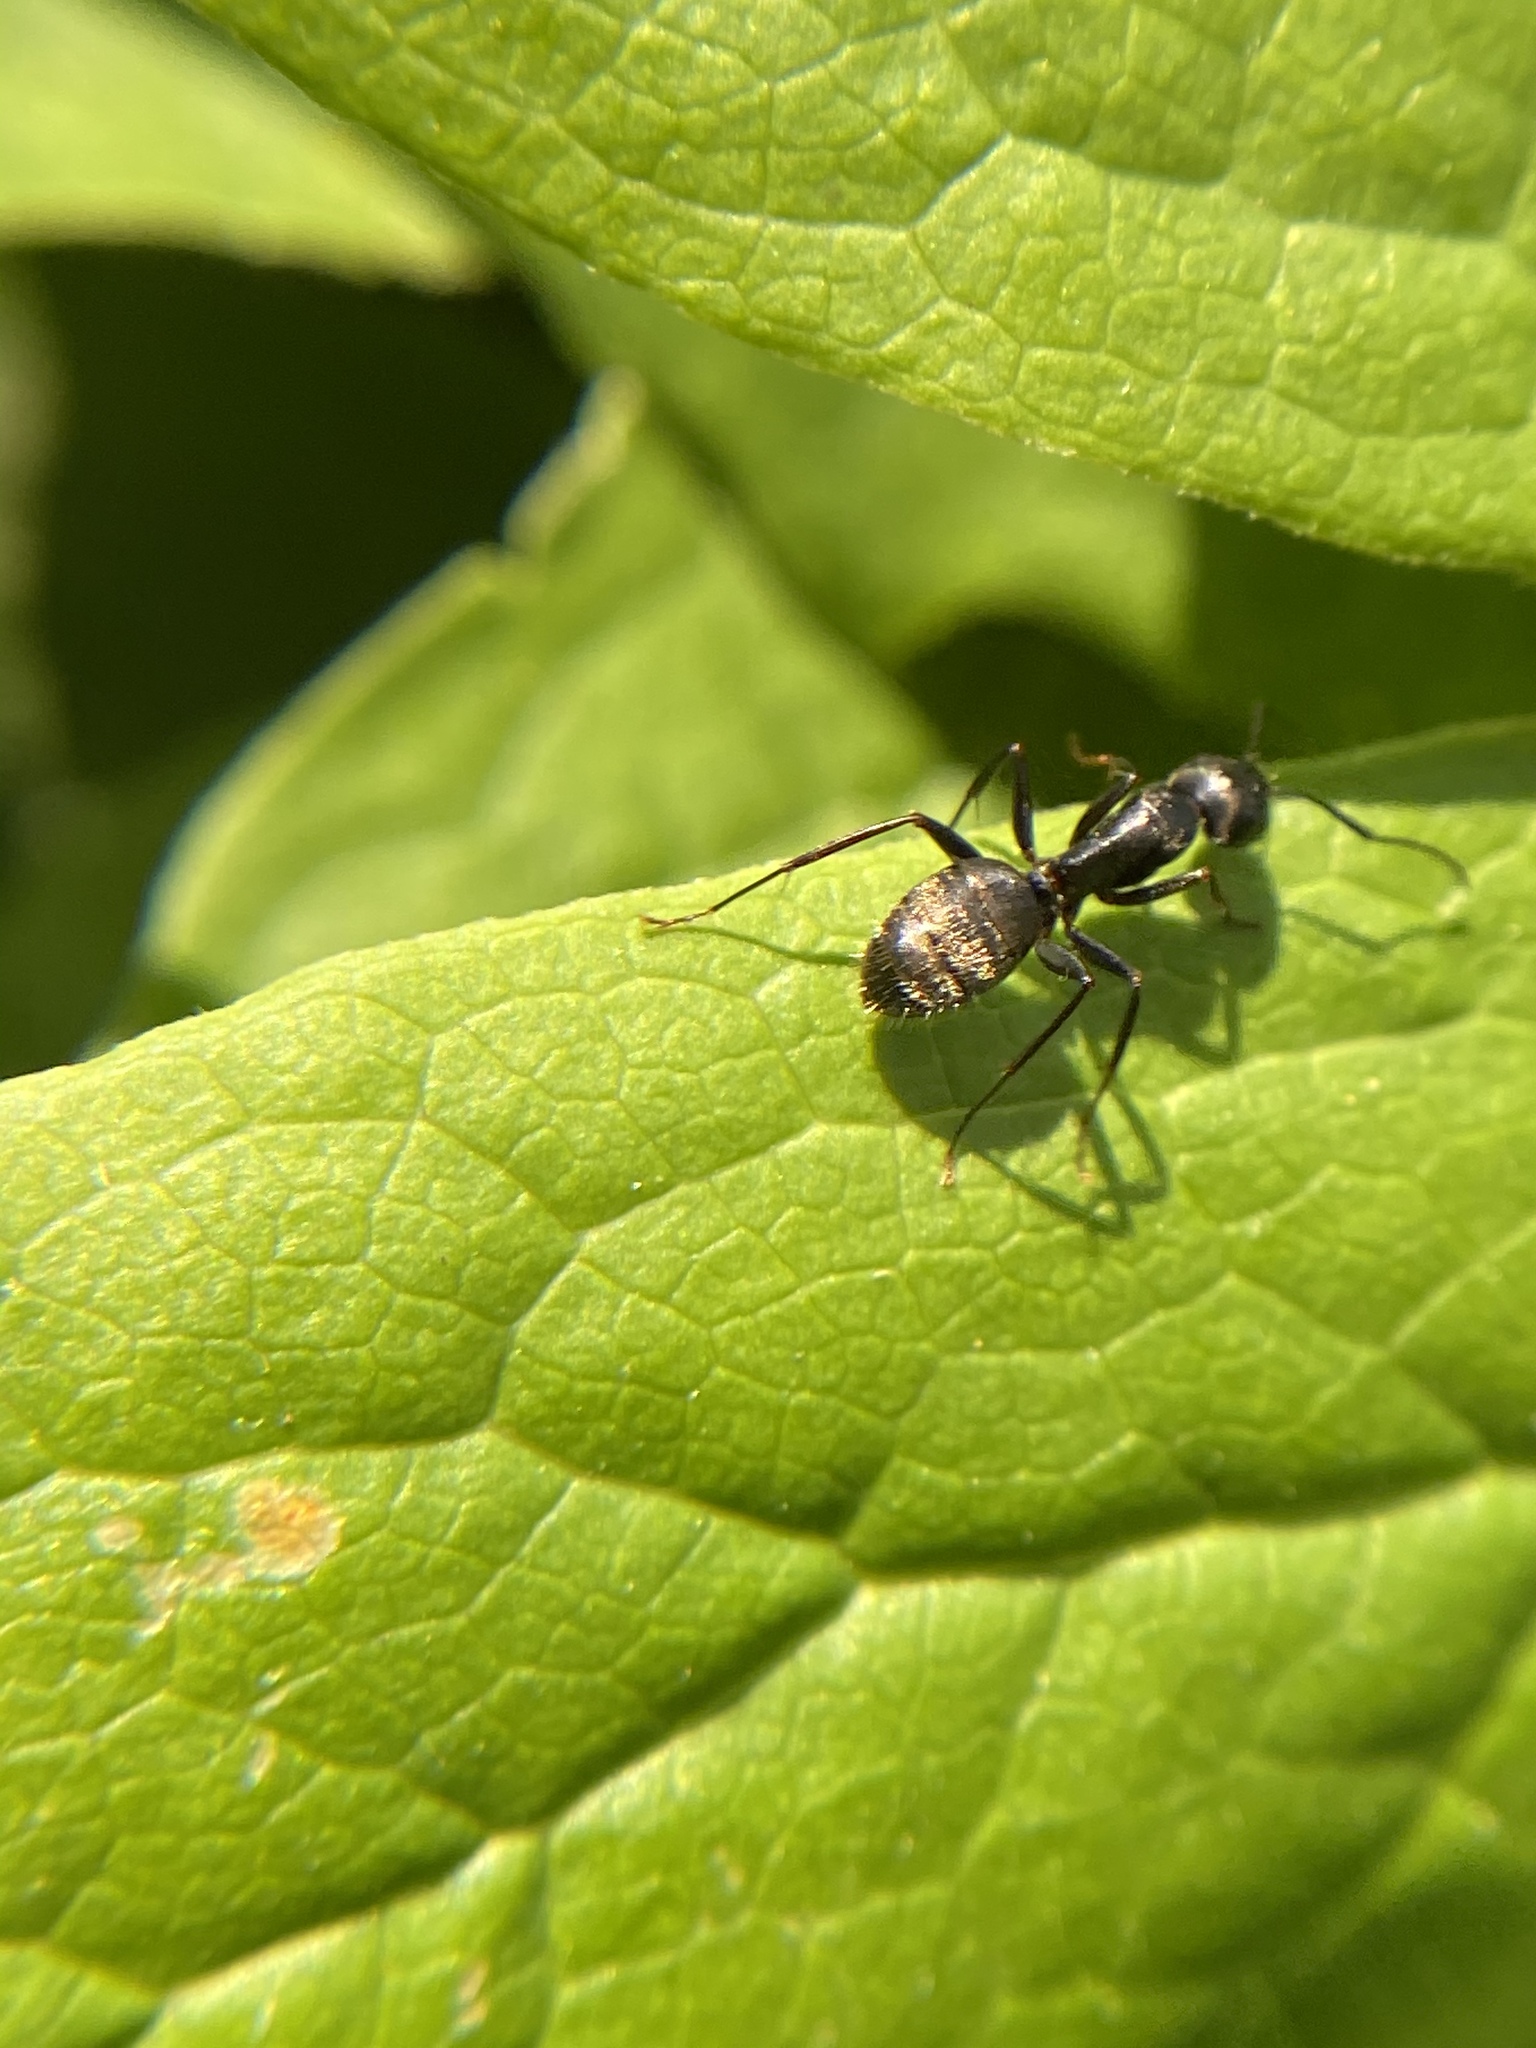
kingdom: Animalia
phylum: Arthropoda
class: Insecta
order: Hymenoptera
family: Formicidae
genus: Camponotus
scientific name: Camponotus pennsylvanicus
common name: Black carpenter ant
